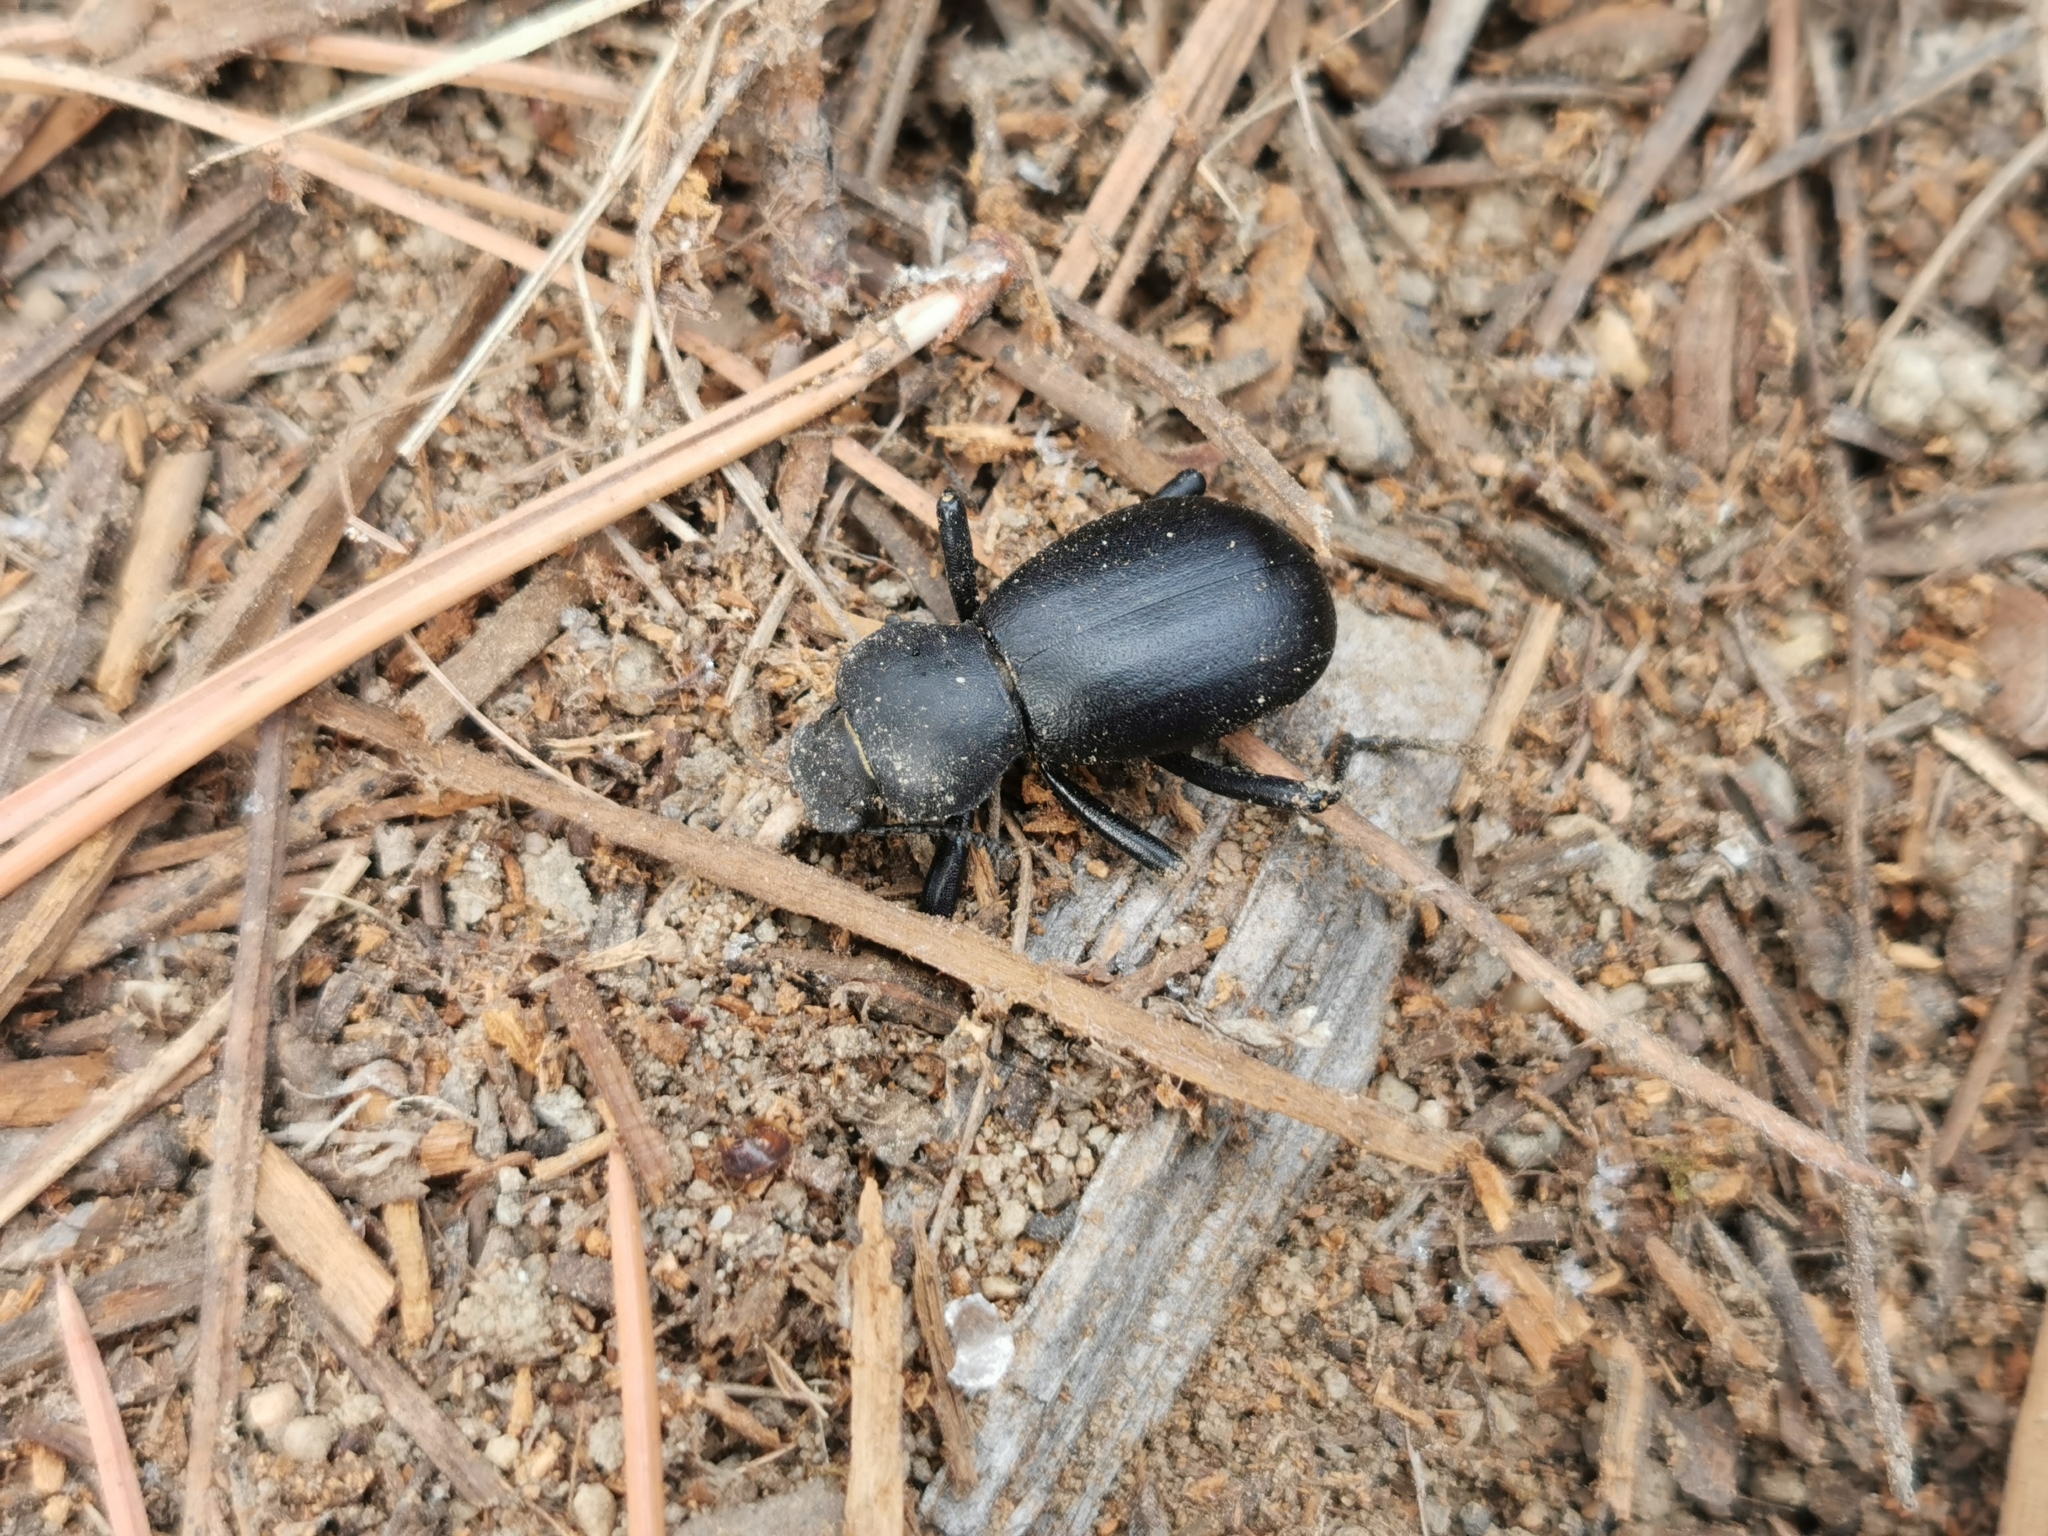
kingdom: Animalia
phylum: Arthropoda
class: Insecta
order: Coleoptera
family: Tenebrionidae
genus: Coelocnemis
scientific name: Coelocnemis dilaticollis
